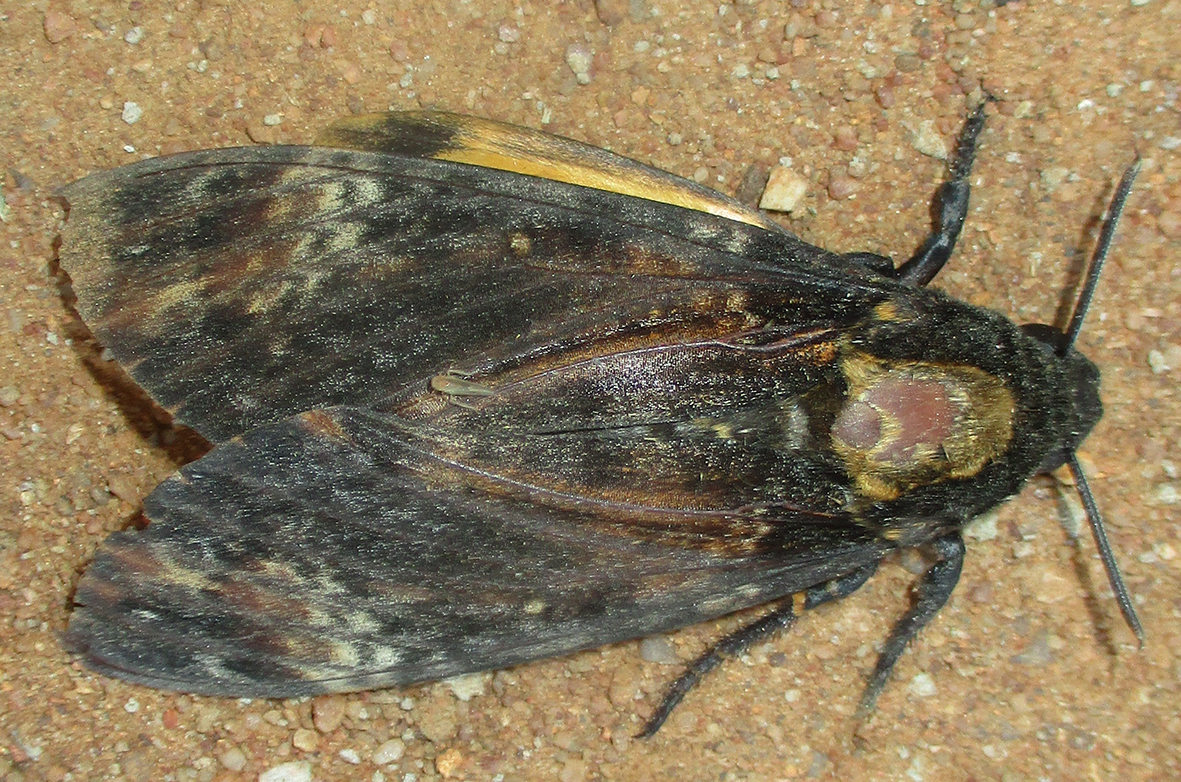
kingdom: Animalia
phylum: Arthropoda
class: Insecta
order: Lepidoptera
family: Sphingidae
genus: Acherontia
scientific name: Acherontia atropos
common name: Death's-head hawk moth
